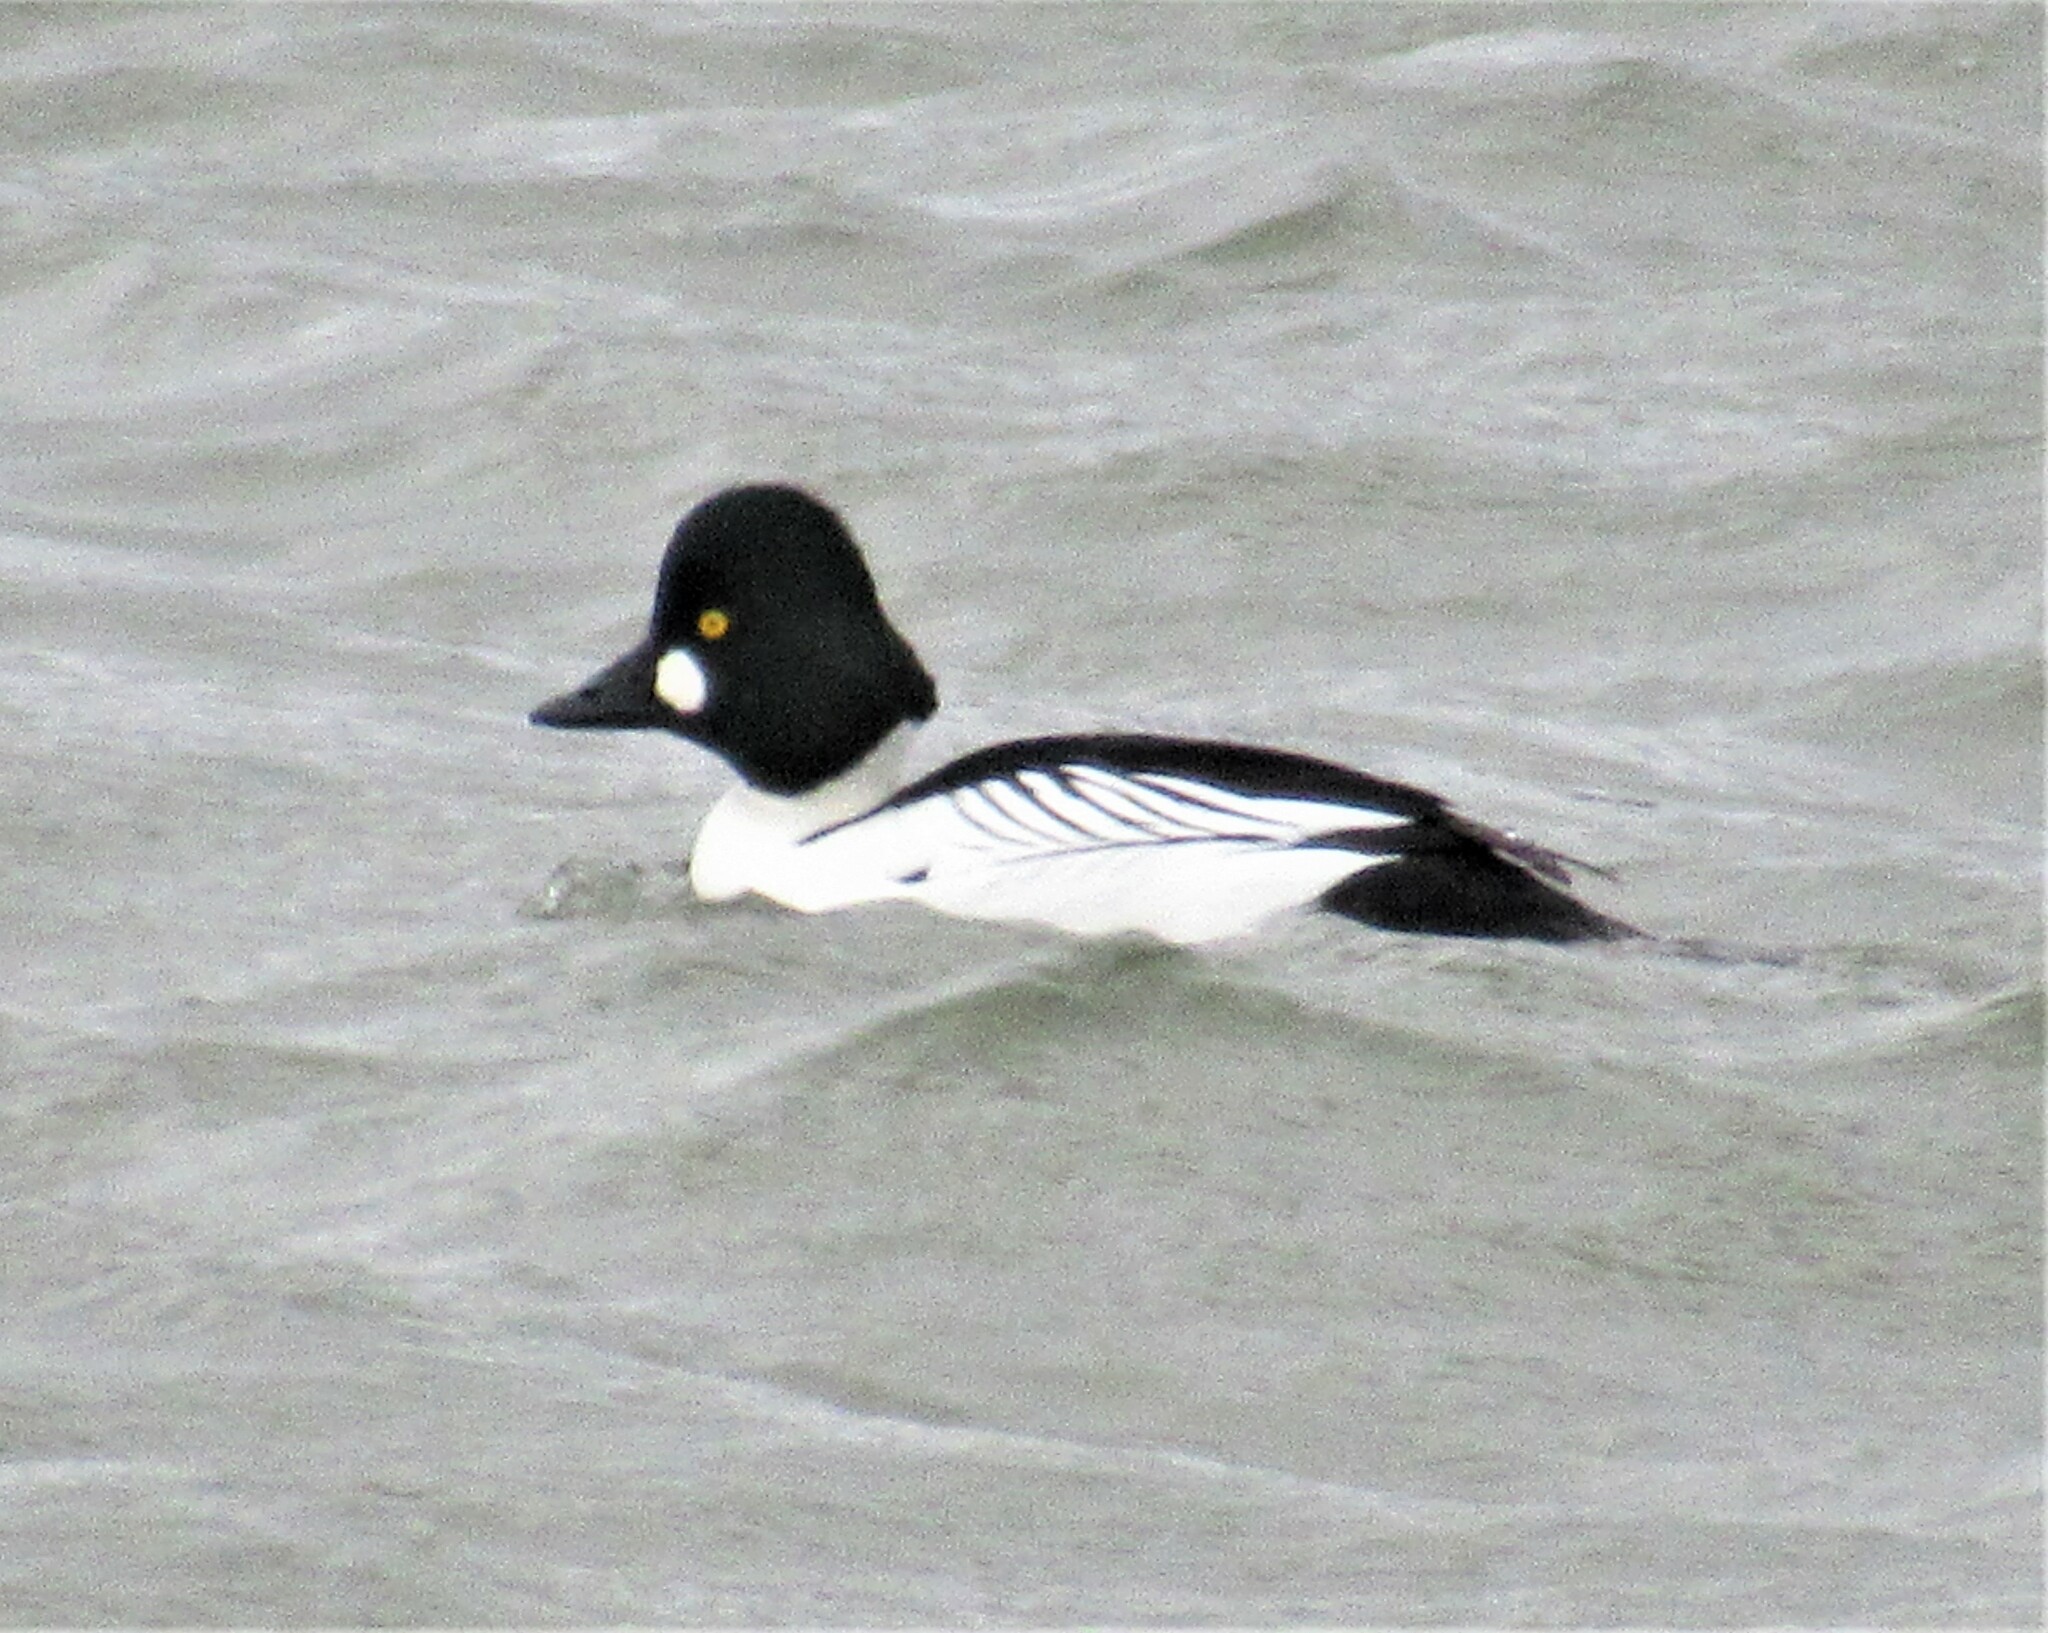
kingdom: Animalia
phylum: Chordata
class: Aves
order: Anseriformes
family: Anatidae
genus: Bucephala
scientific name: Bucephala clangula
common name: Common goldeneye
